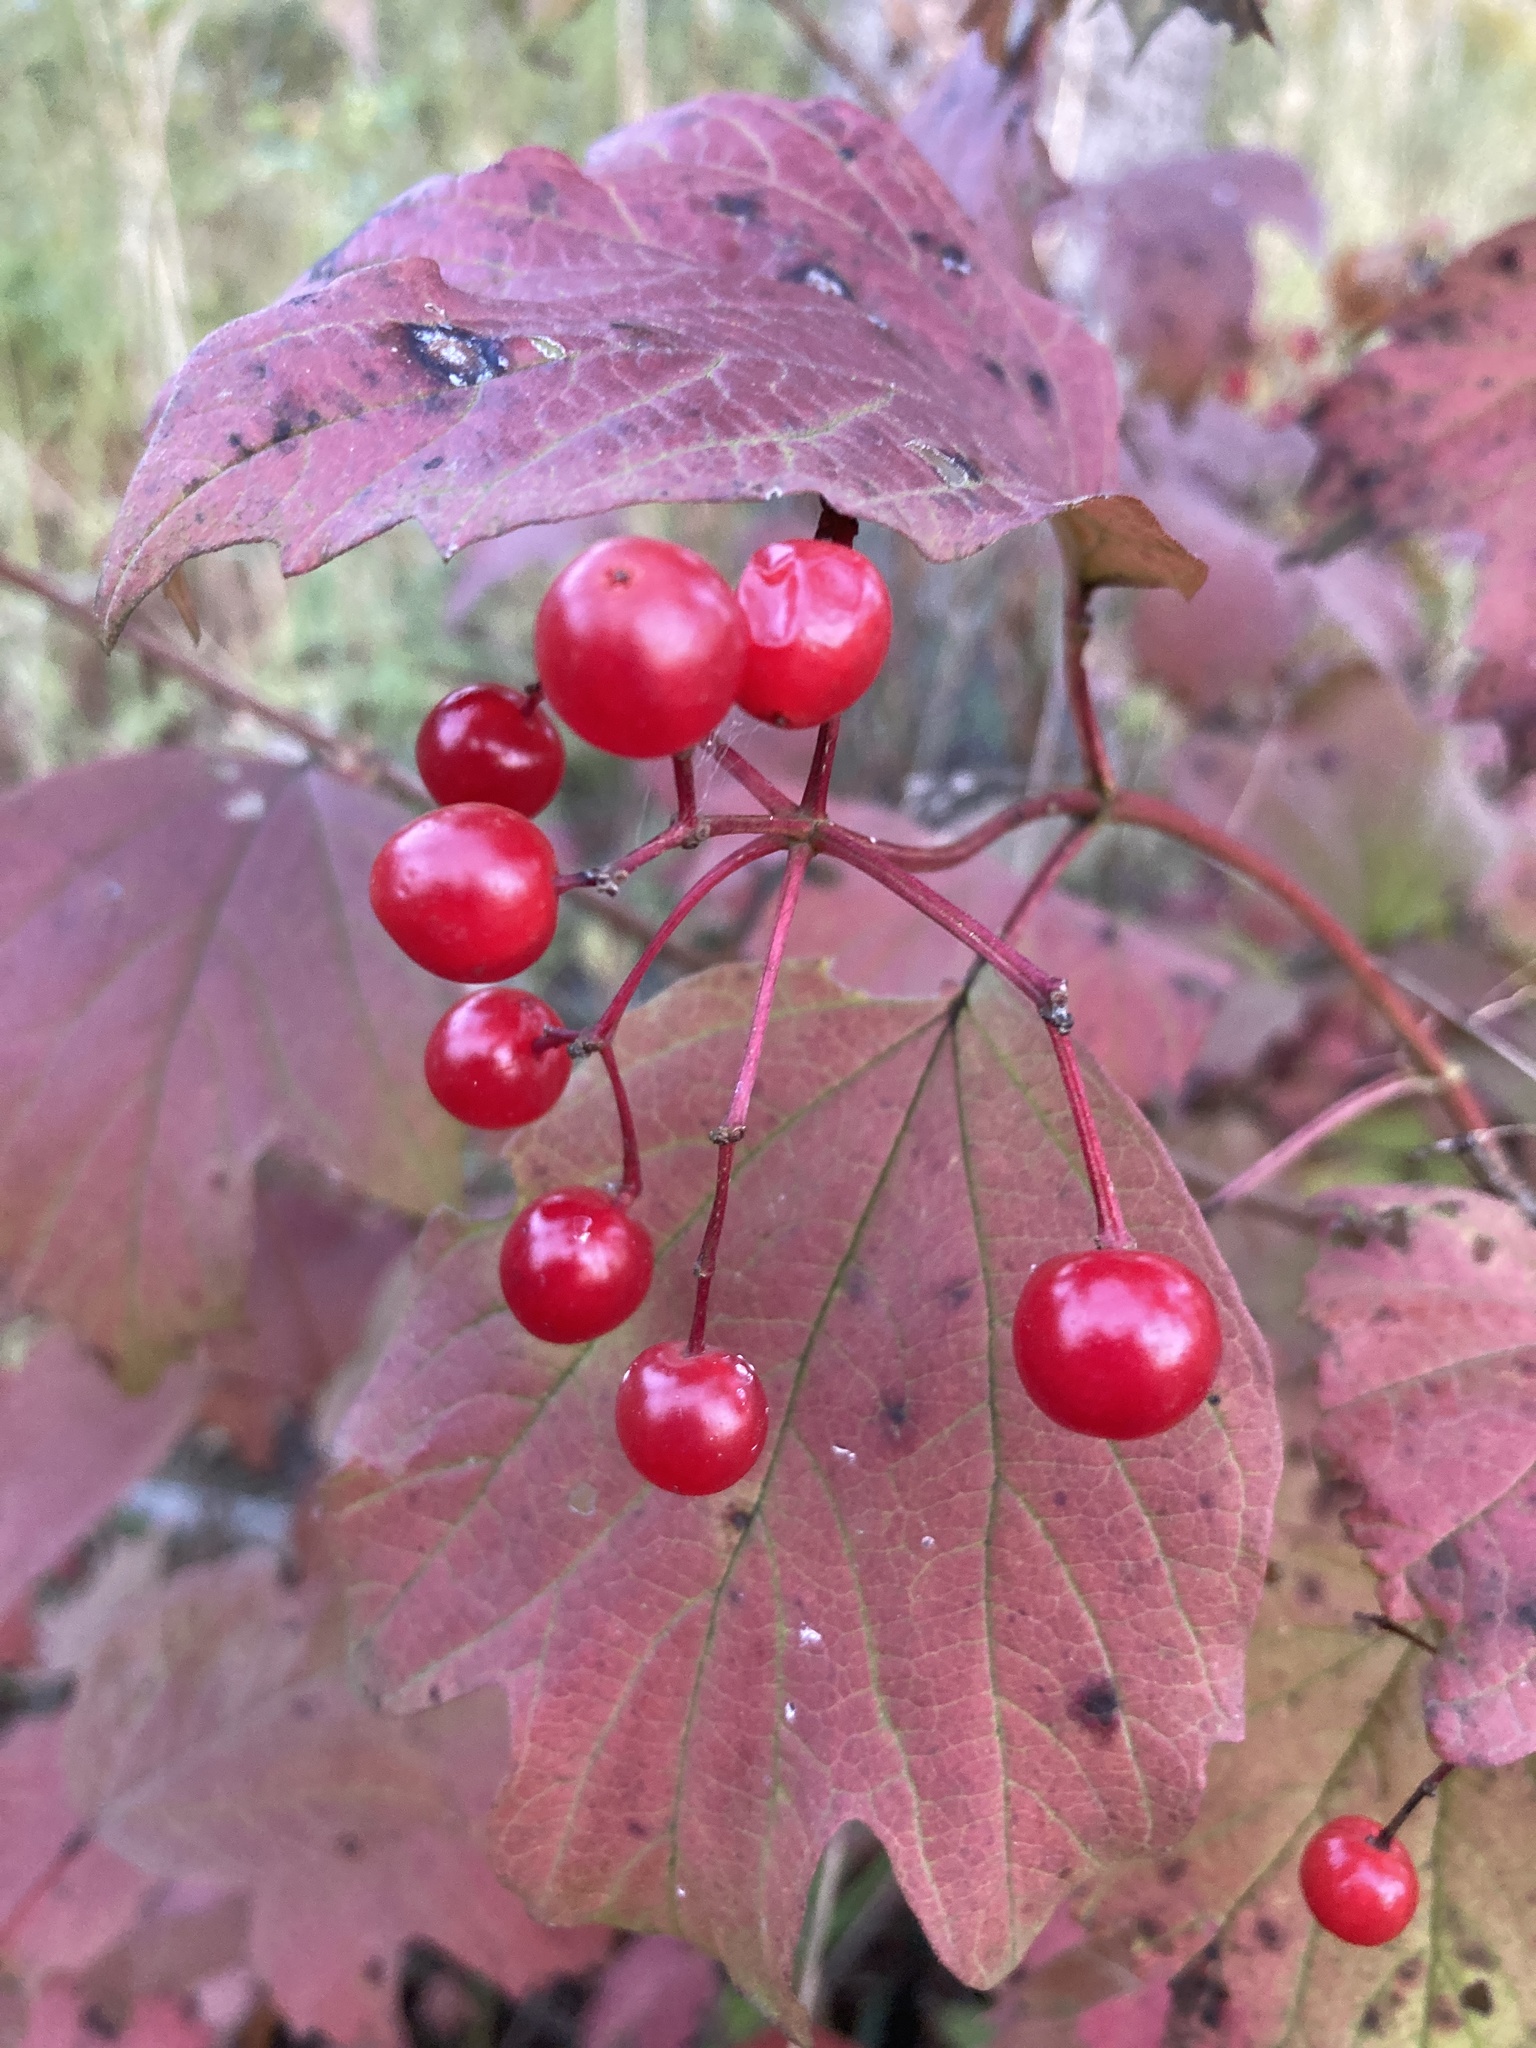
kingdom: Plantae
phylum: Tracheophyta
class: Magnoliopsida
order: Dipsacales
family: Viburnaceae
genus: Viburnum
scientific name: Viburnum opulus
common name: Guelder-rose
